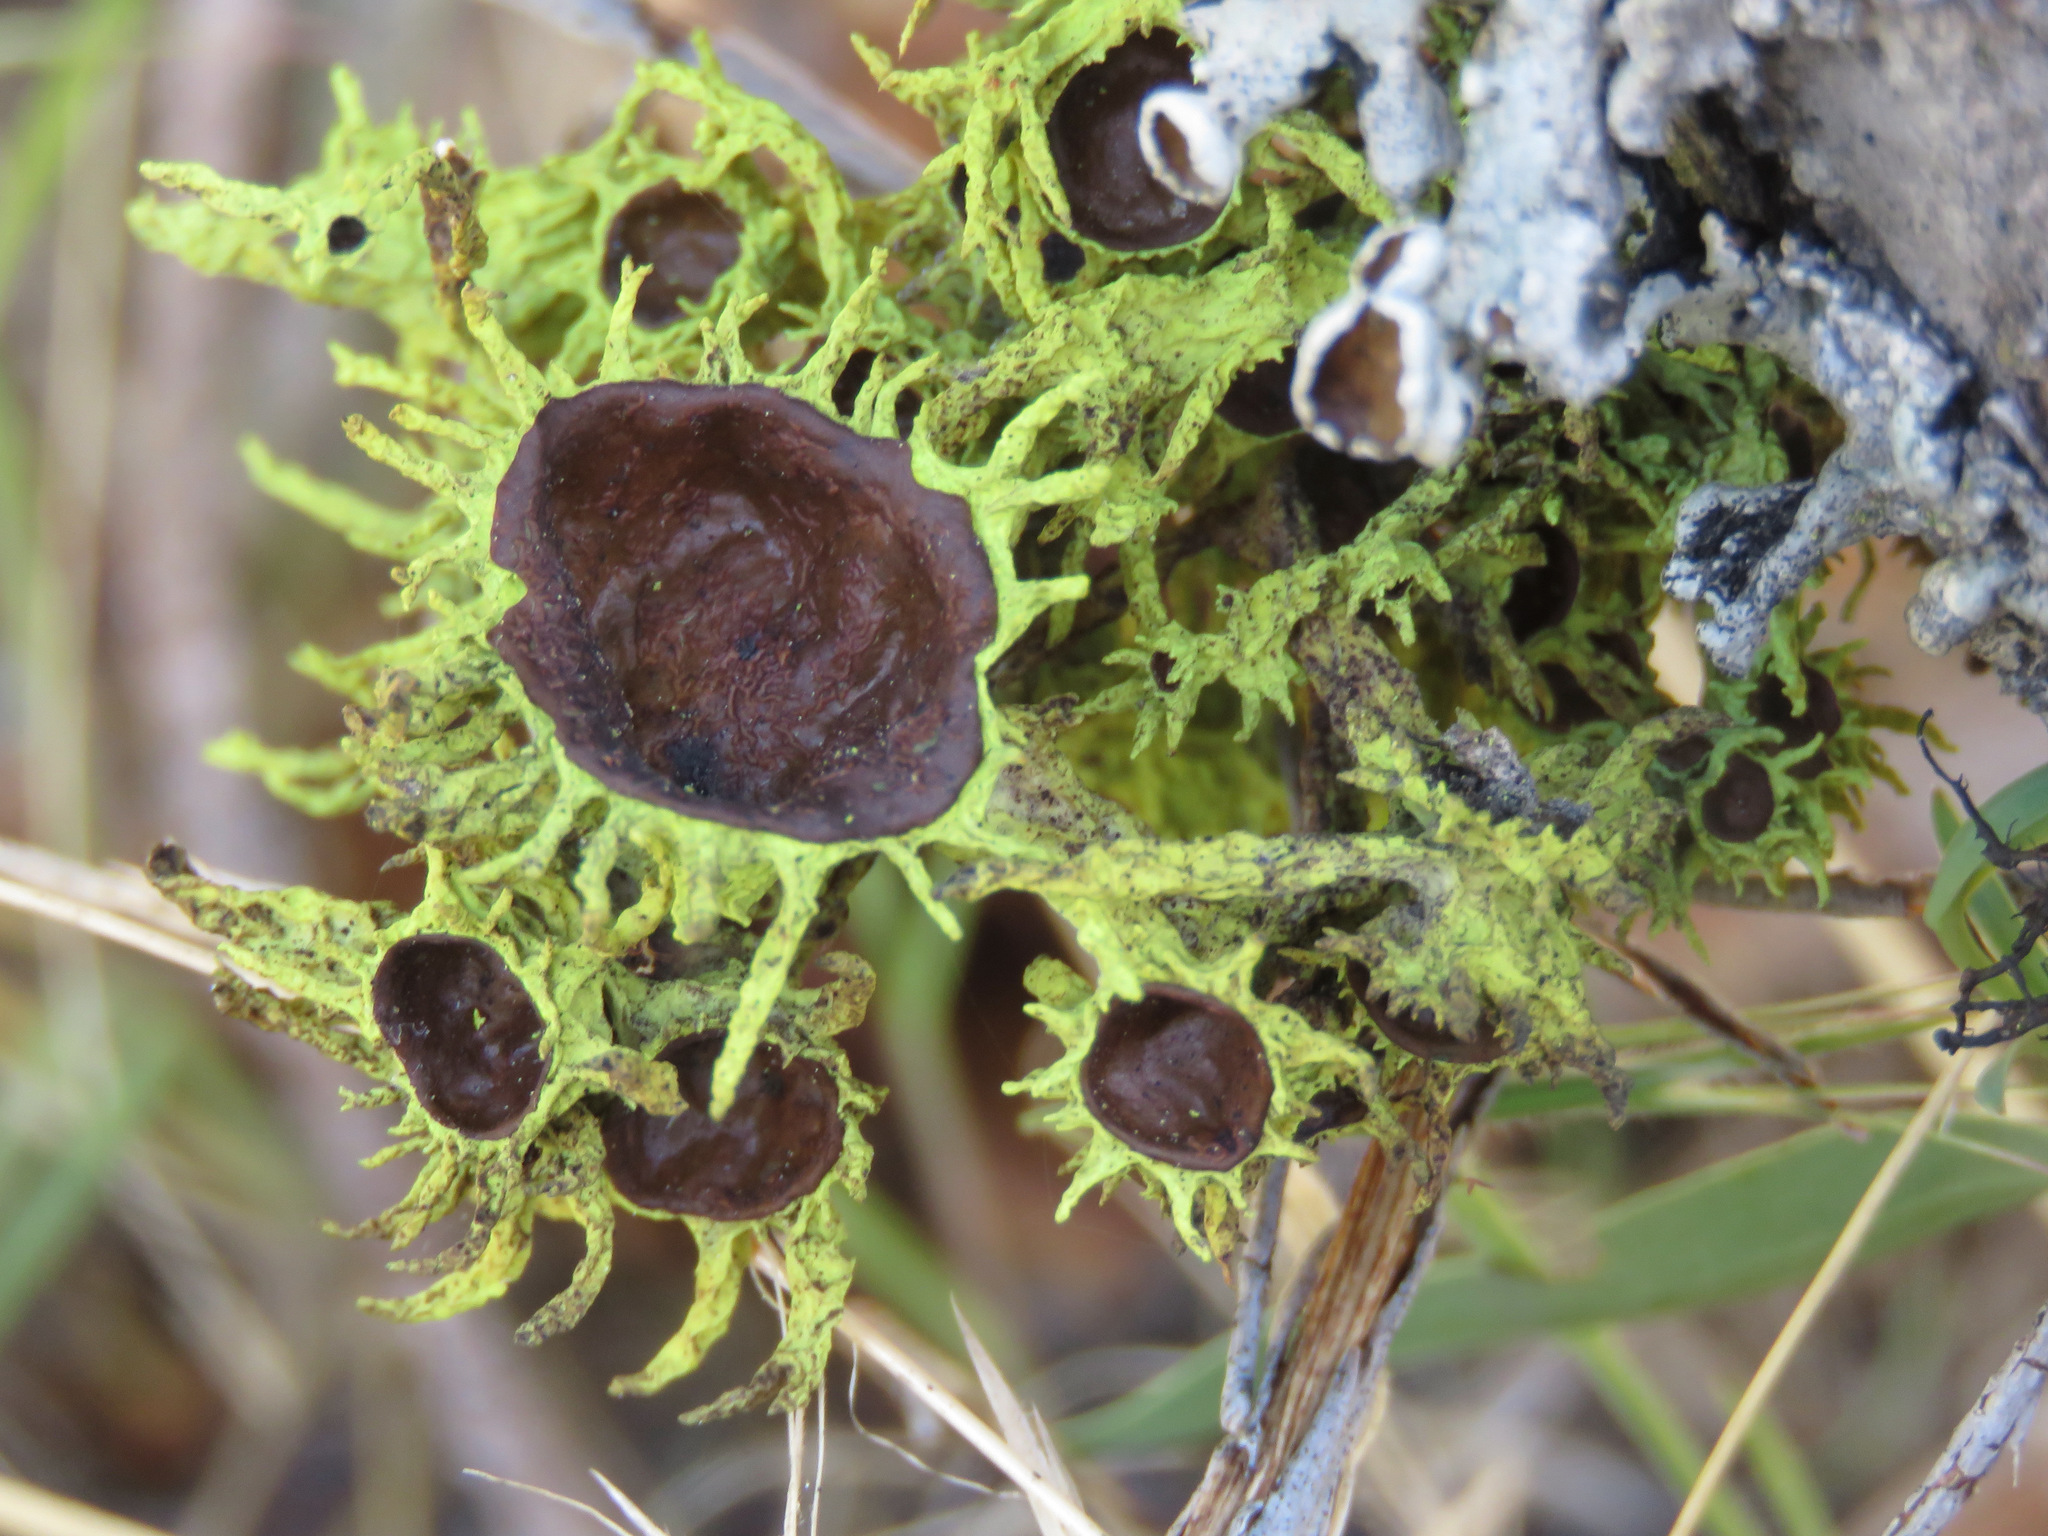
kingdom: Fungi
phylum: Ascomycota
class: Lecanoromycetes
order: Lecanorales
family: Parmeliaceae
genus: Letharia
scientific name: Letharia columbiana
